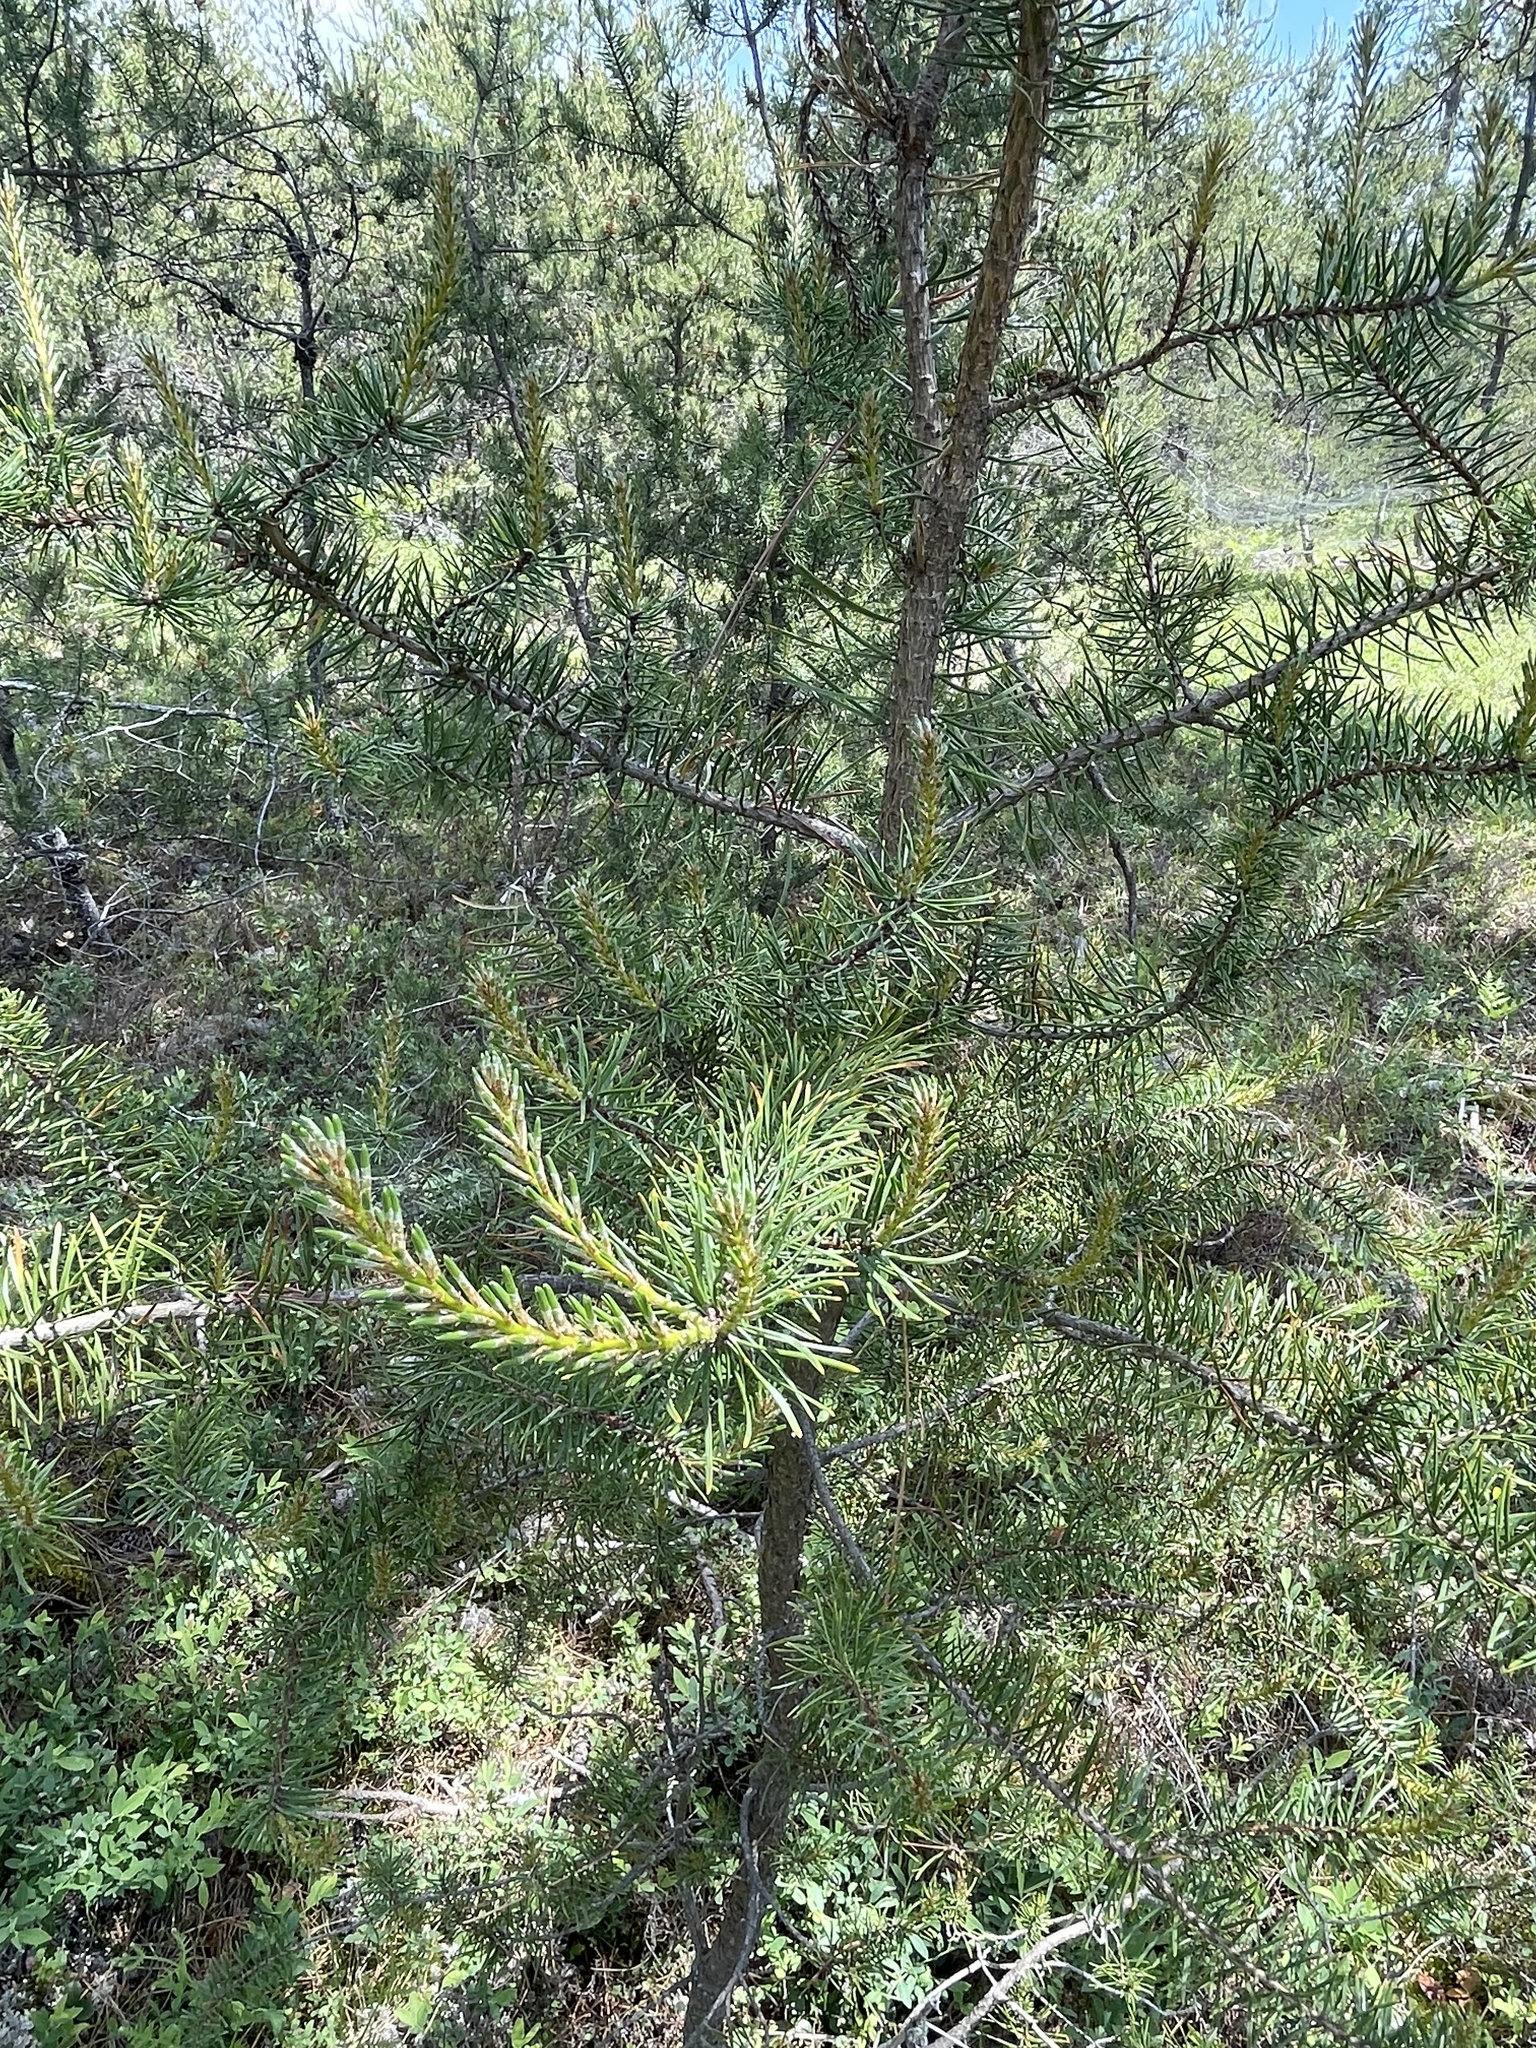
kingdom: Plantae
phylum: Tracheophyta
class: Pinopsida
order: Pinales
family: Pinaceae
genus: Pinus
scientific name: Pinus banksiana
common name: Jack pine
